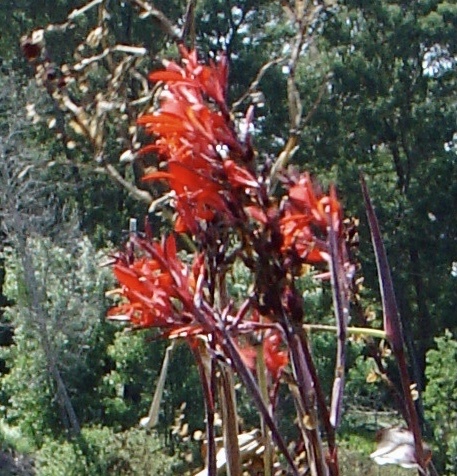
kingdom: Plantae
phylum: Tracheophyta
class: Liliopsida
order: Zingiberales
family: Cannaceae
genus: Canna
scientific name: Canna indica
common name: Indian shot
